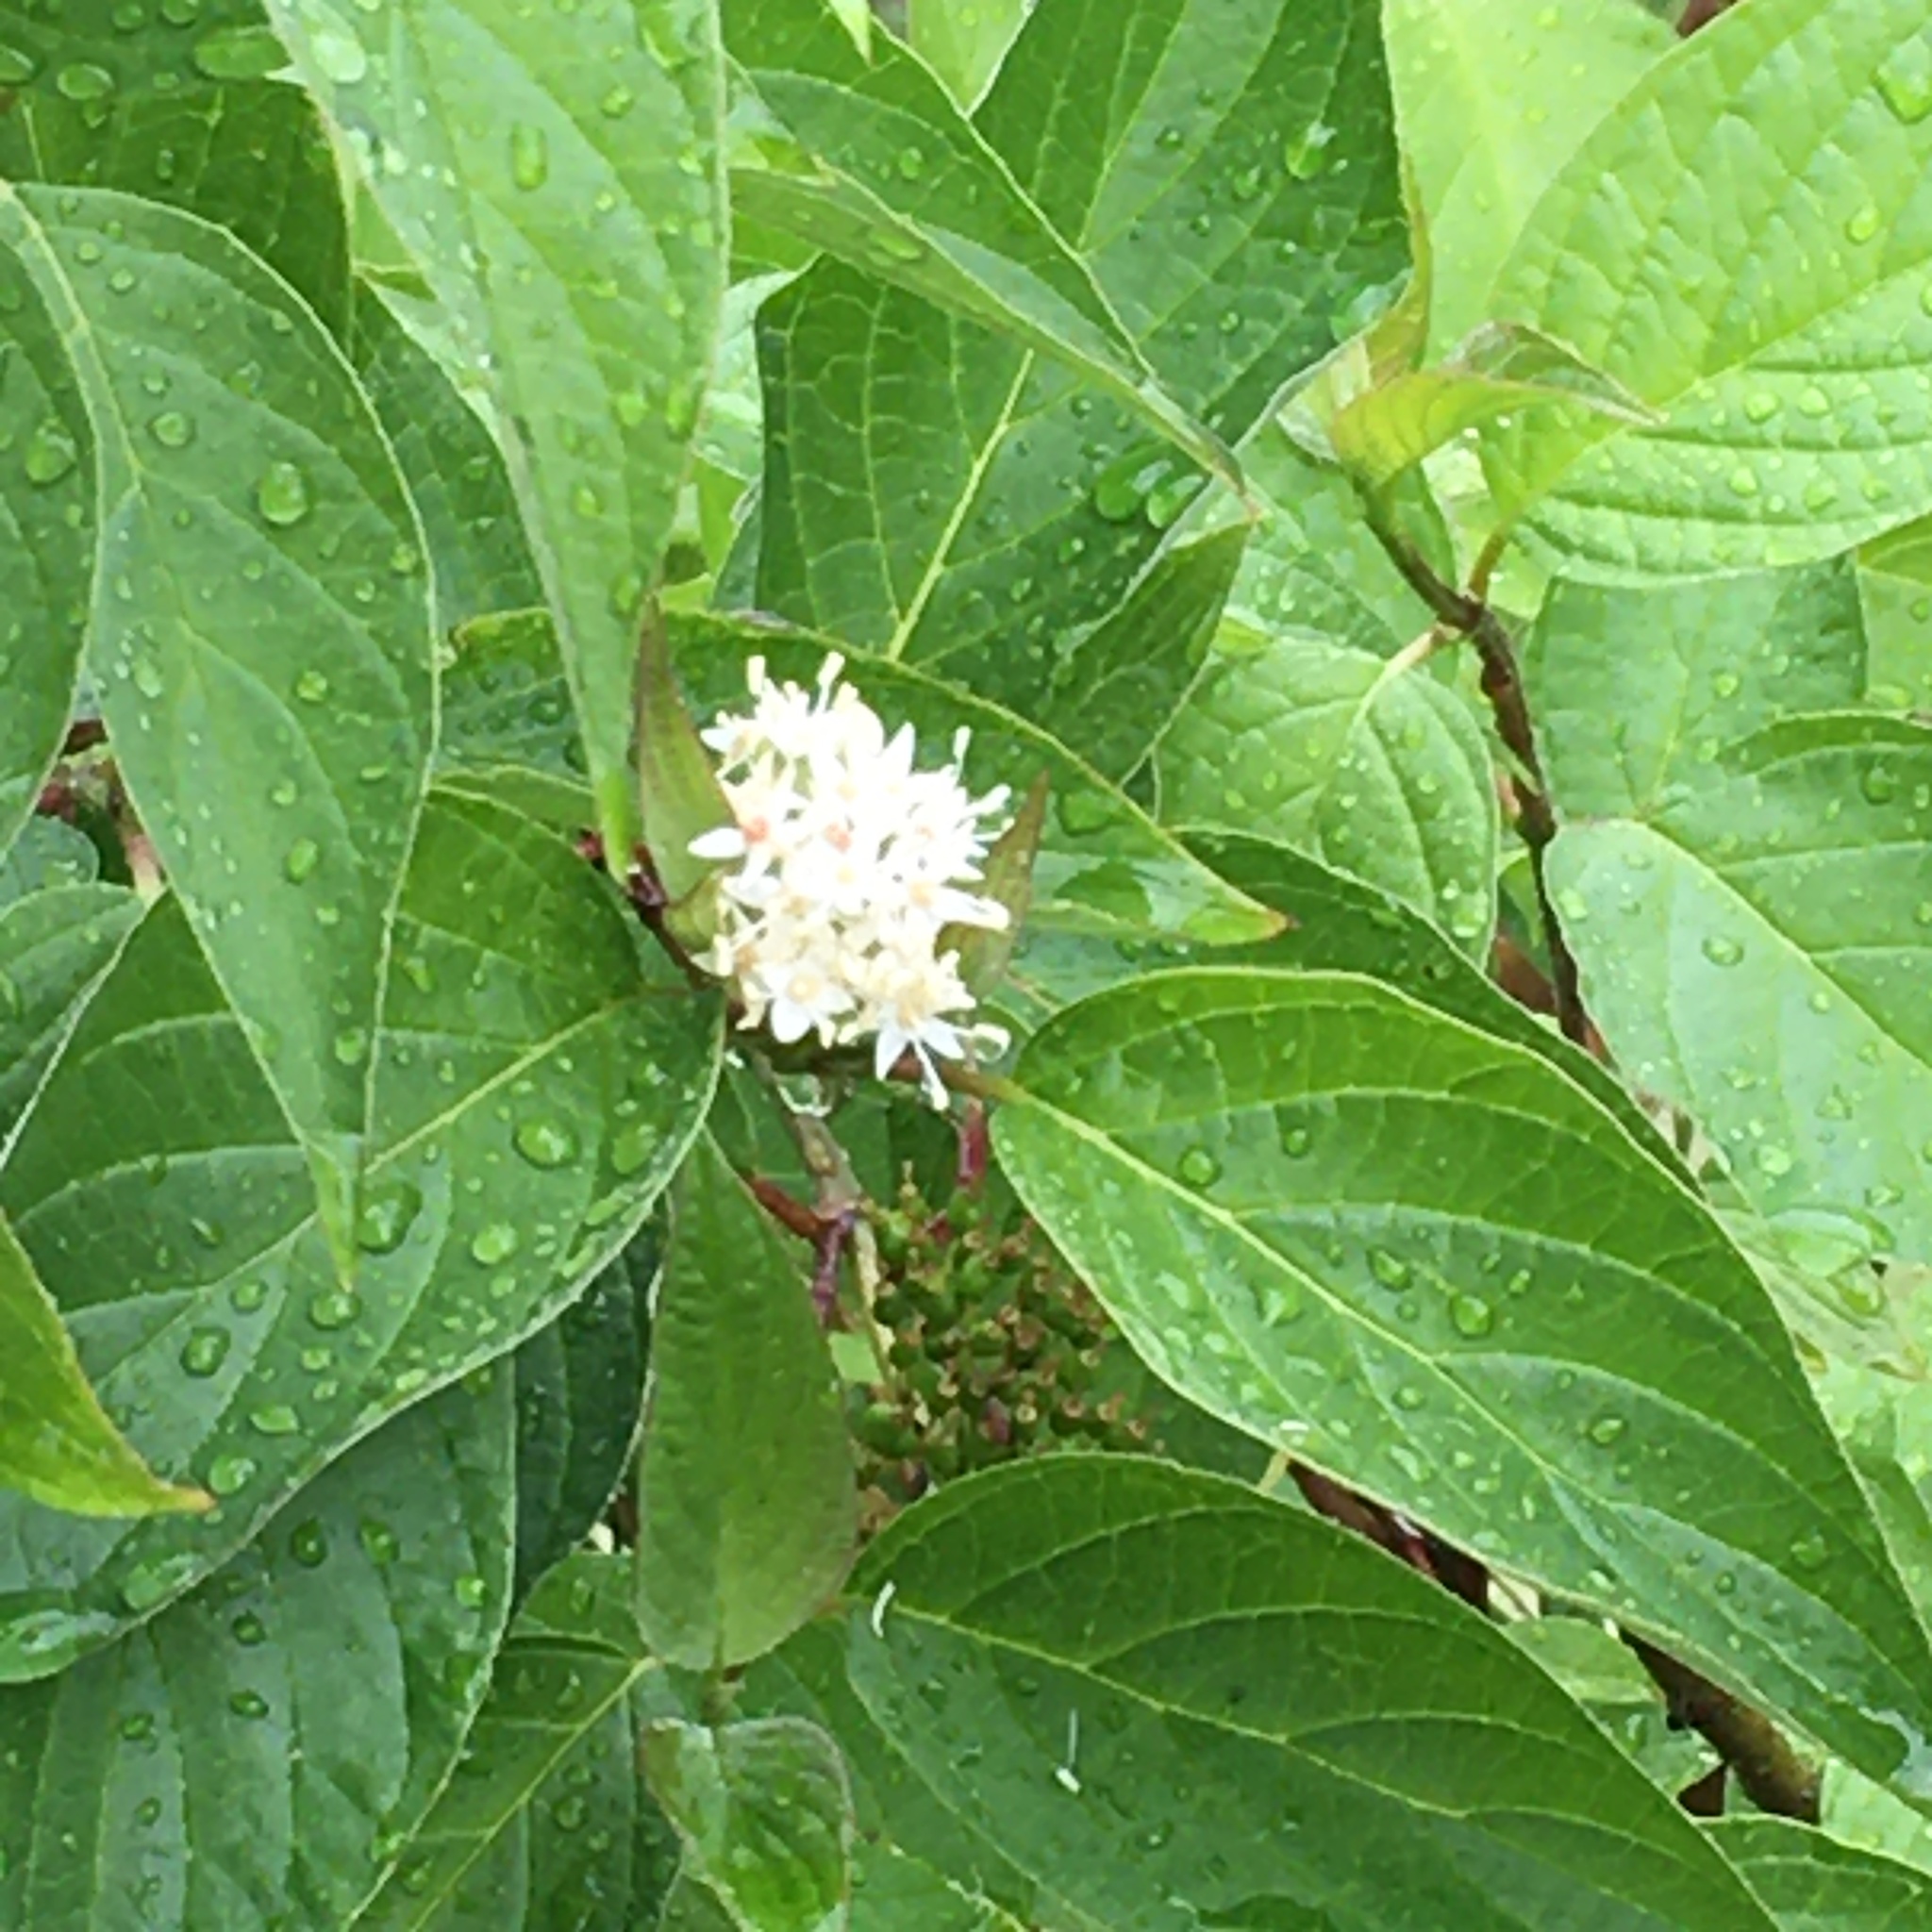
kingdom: Plantae
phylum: Tracheophyta
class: Magnoliopsida
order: Cornales
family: Cornaceae
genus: Cornus
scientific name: Cornus sericea
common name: Red-osier dogwood
